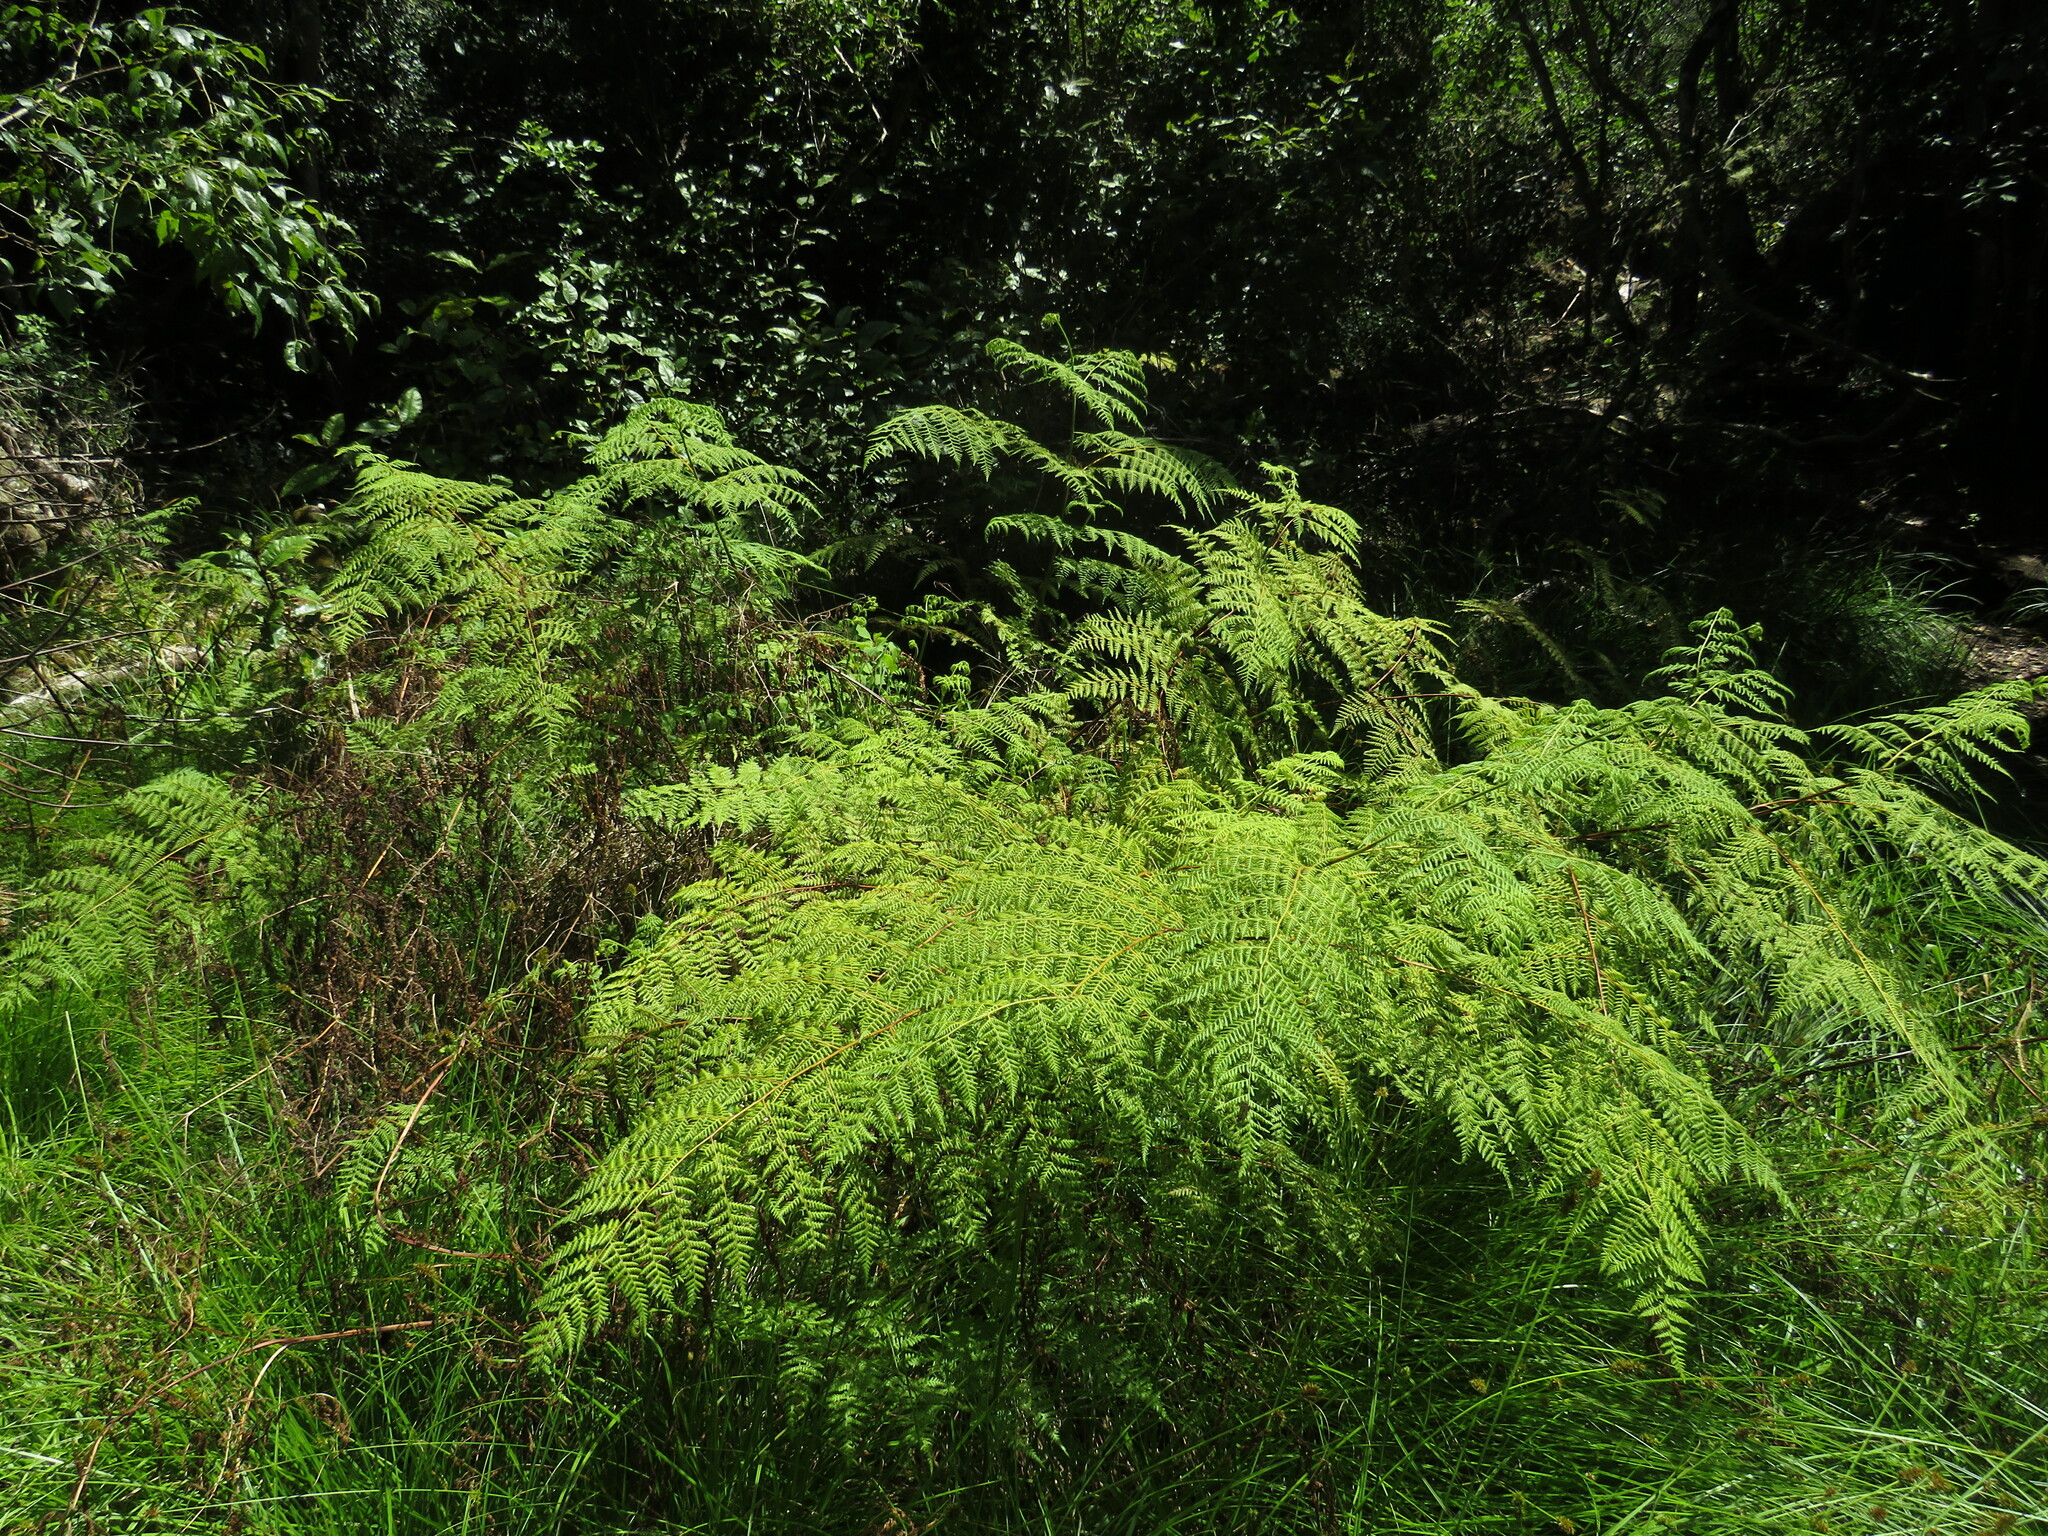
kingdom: Plantae
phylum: Tracheophyta
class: Polypodiopsida
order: Polypodiales
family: Dennstaedtiaceae
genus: Hypolepis
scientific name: Hypolepis sparsisora
